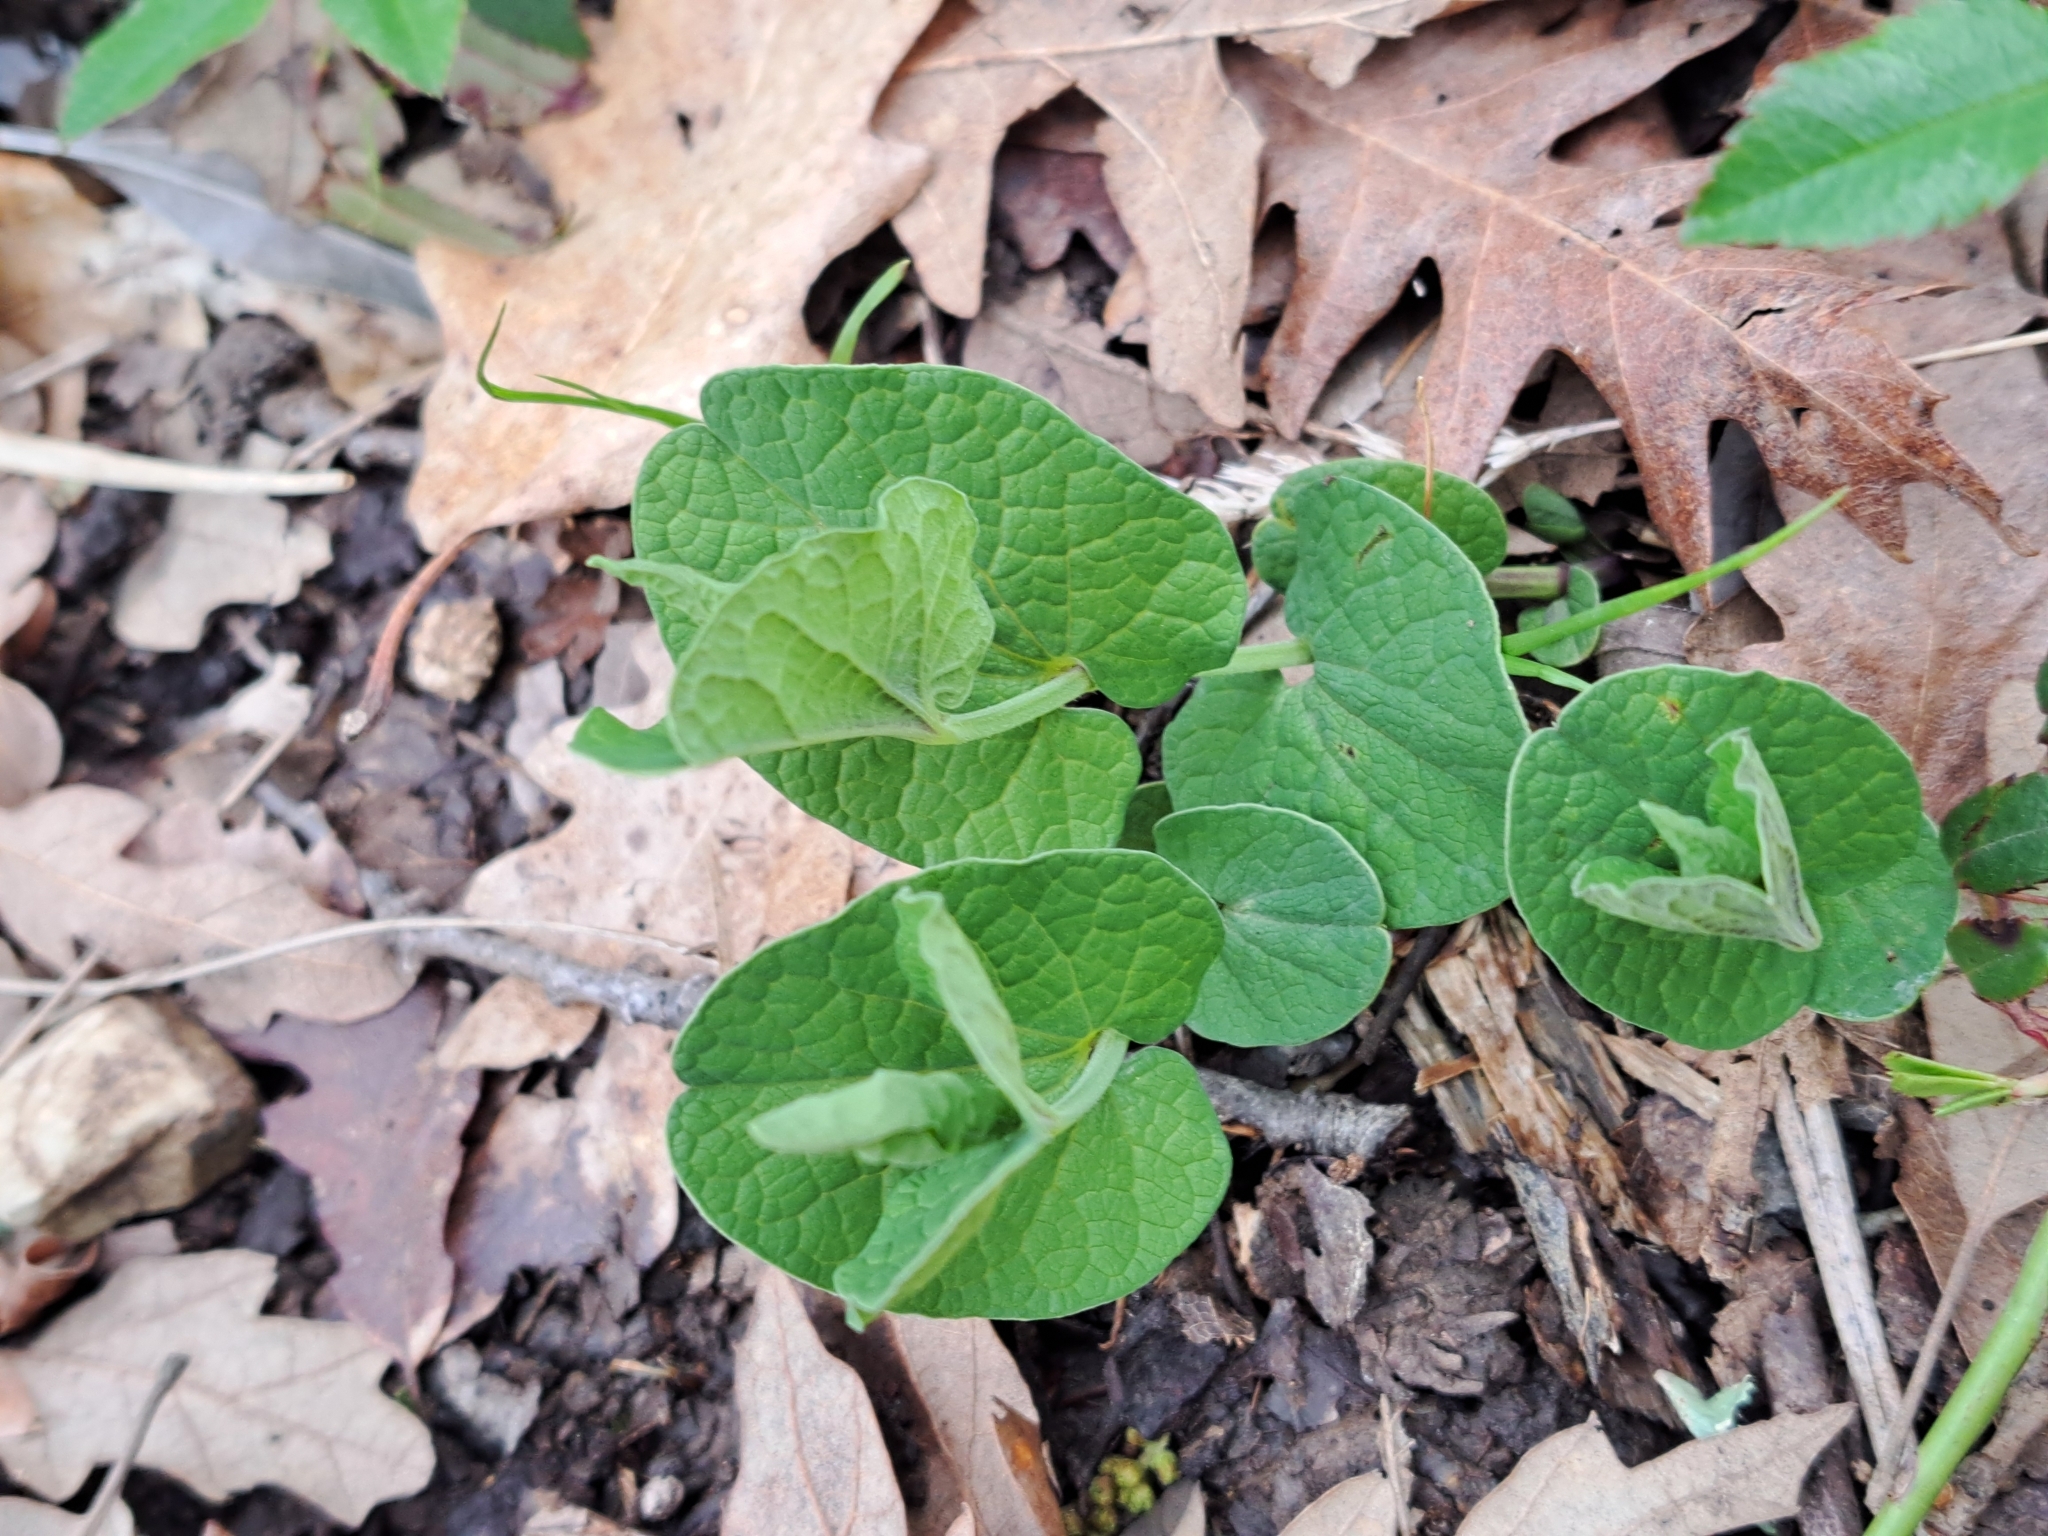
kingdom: Plantae
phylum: Tracheophyta
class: Magnoliopsida
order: Piperales
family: Aristolochiaceae
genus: Aristolochia
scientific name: Aristolochia rotunda
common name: Smearwort
